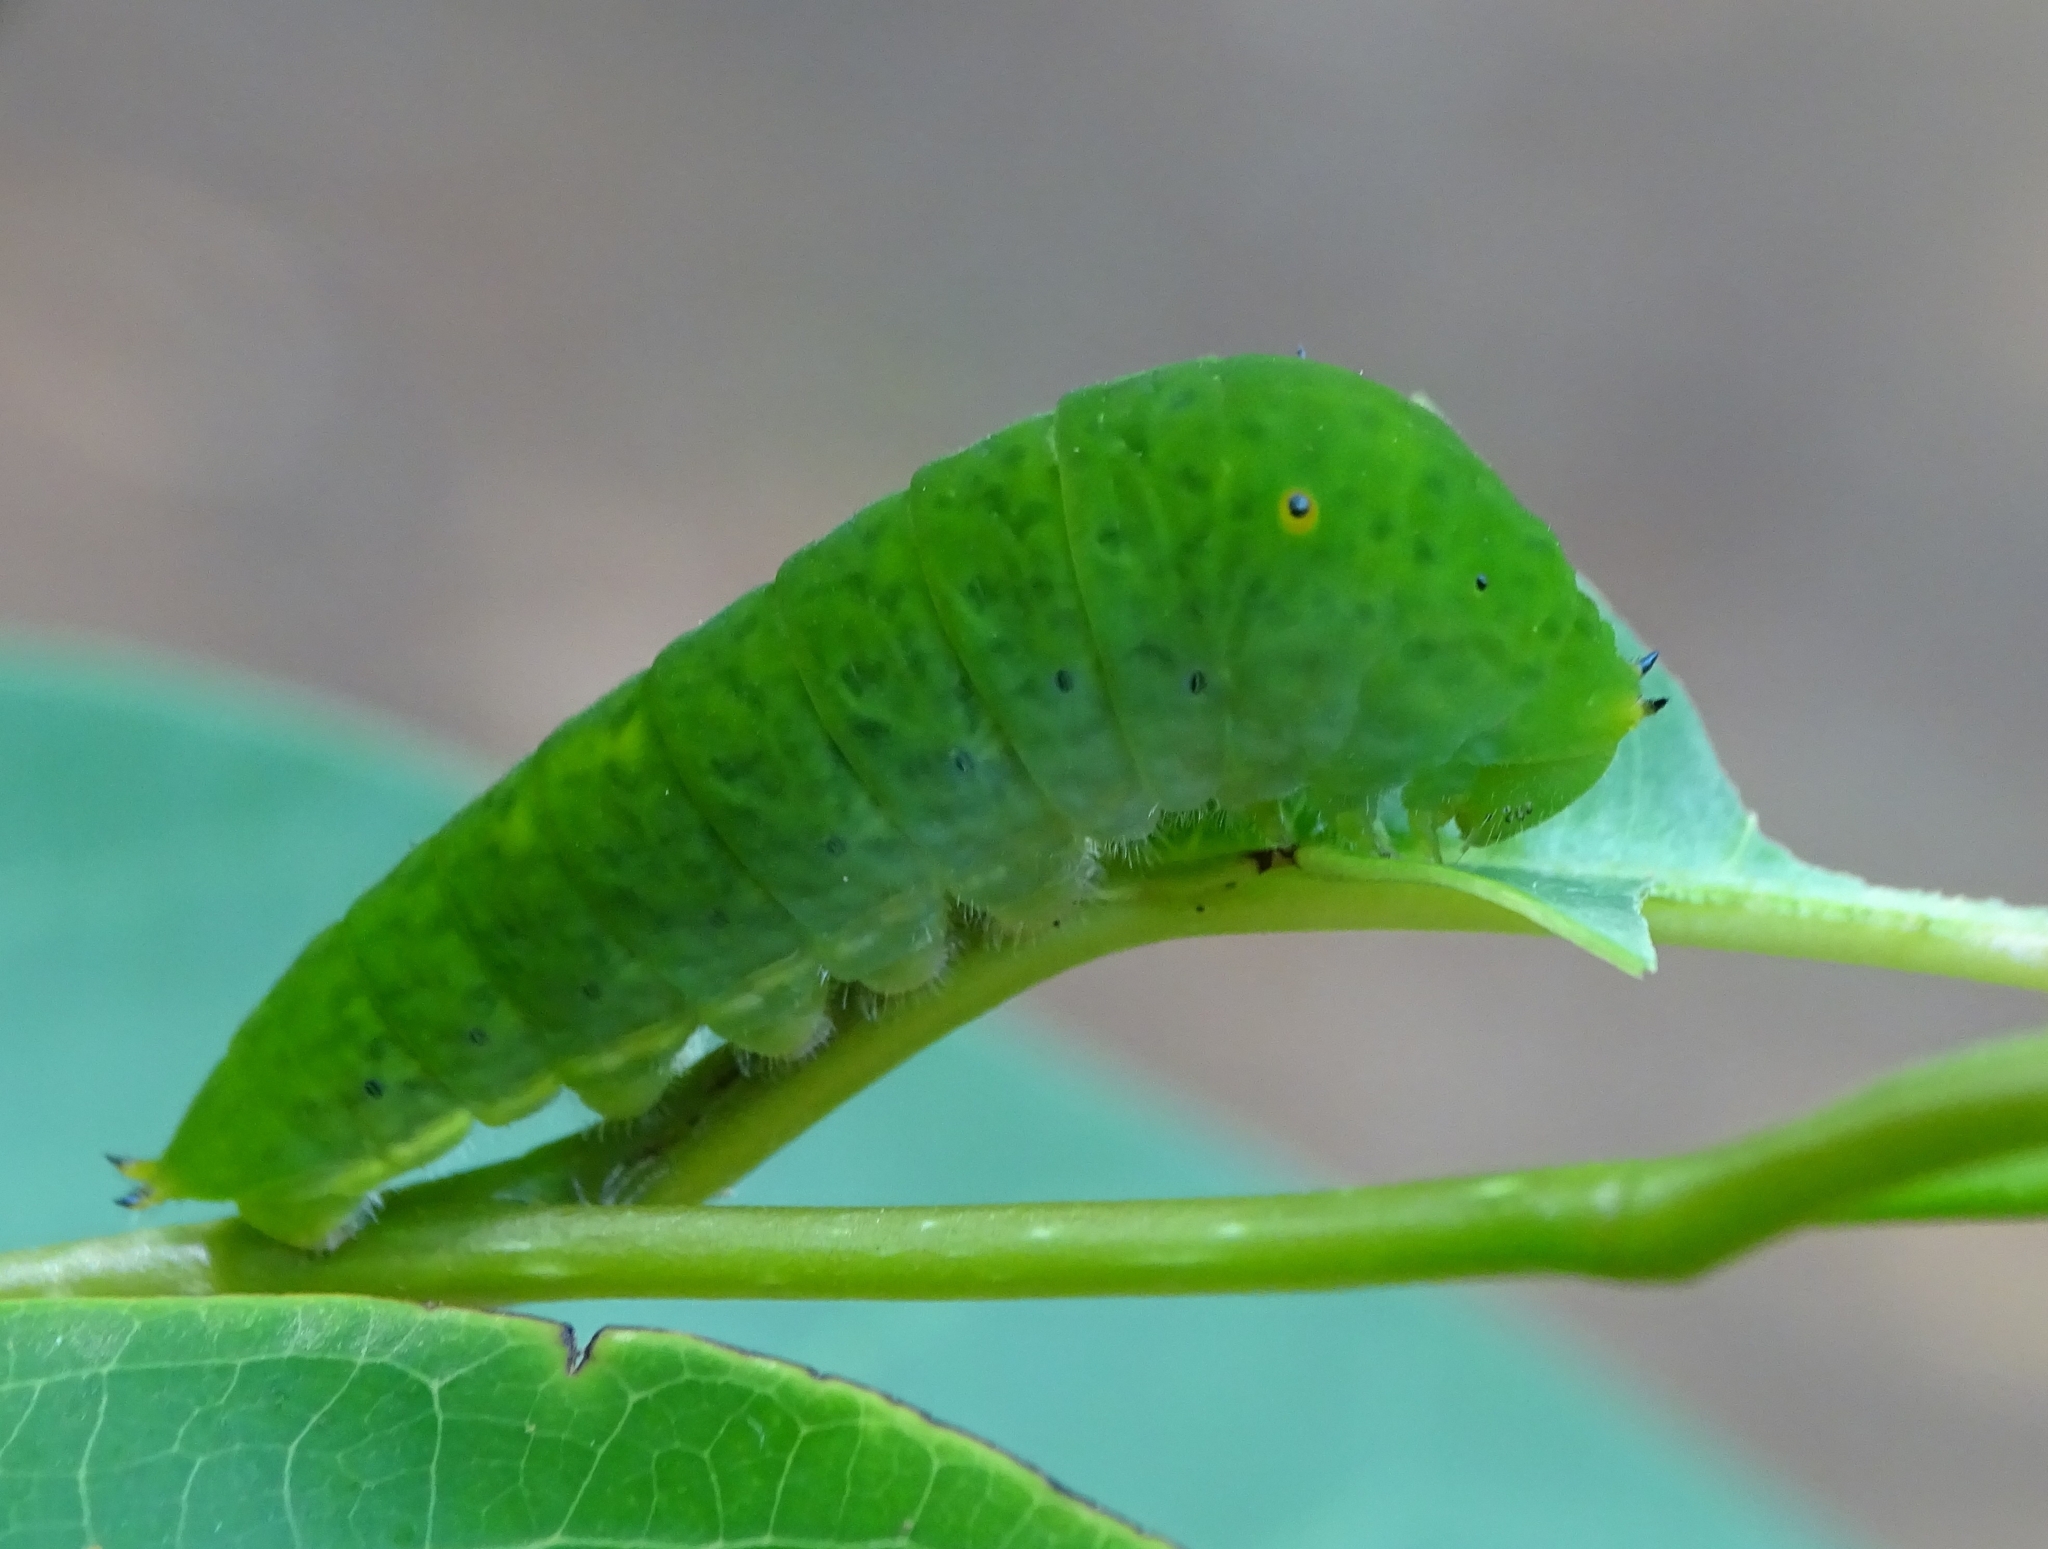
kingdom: Animalia
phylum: Arthropoda
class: Insecta
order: Lepidoptera
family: Papilionidae
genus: Graphium
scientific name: Graphium agamemnon
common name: Tailed jay
